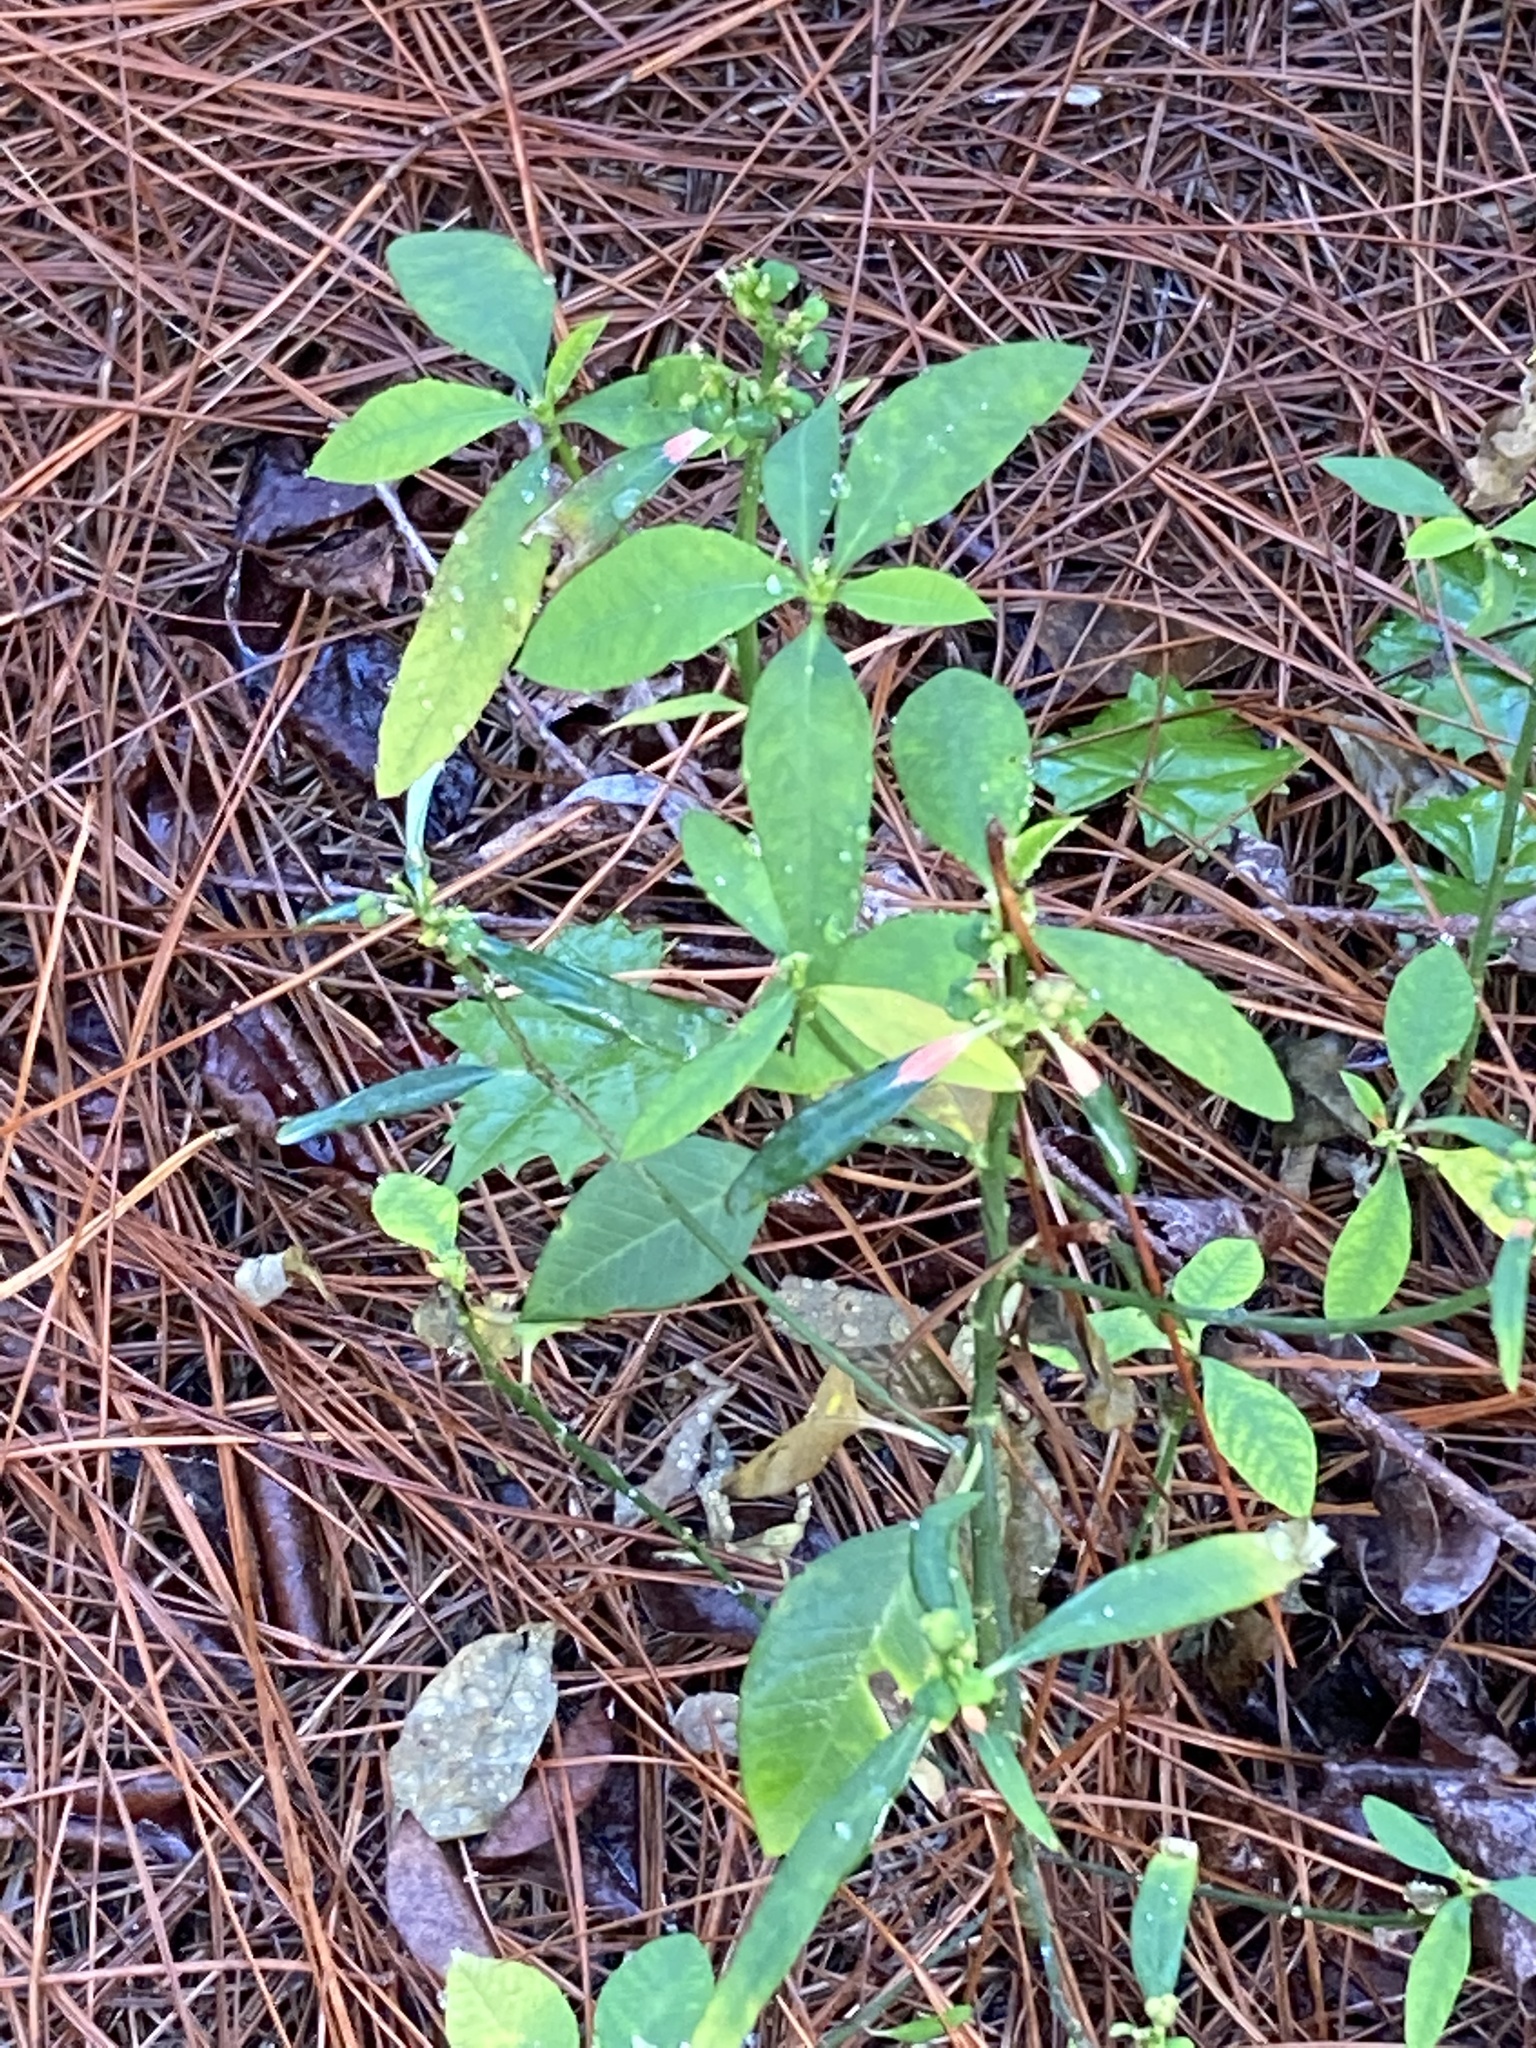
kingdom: Plantae
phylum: Tracheophyta
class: Magnoliopsida
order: Malpighiales
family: Euphorbiaceae
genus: Euphorbia
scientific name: Euphorbia heterophylla
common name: Mexican fireplant
